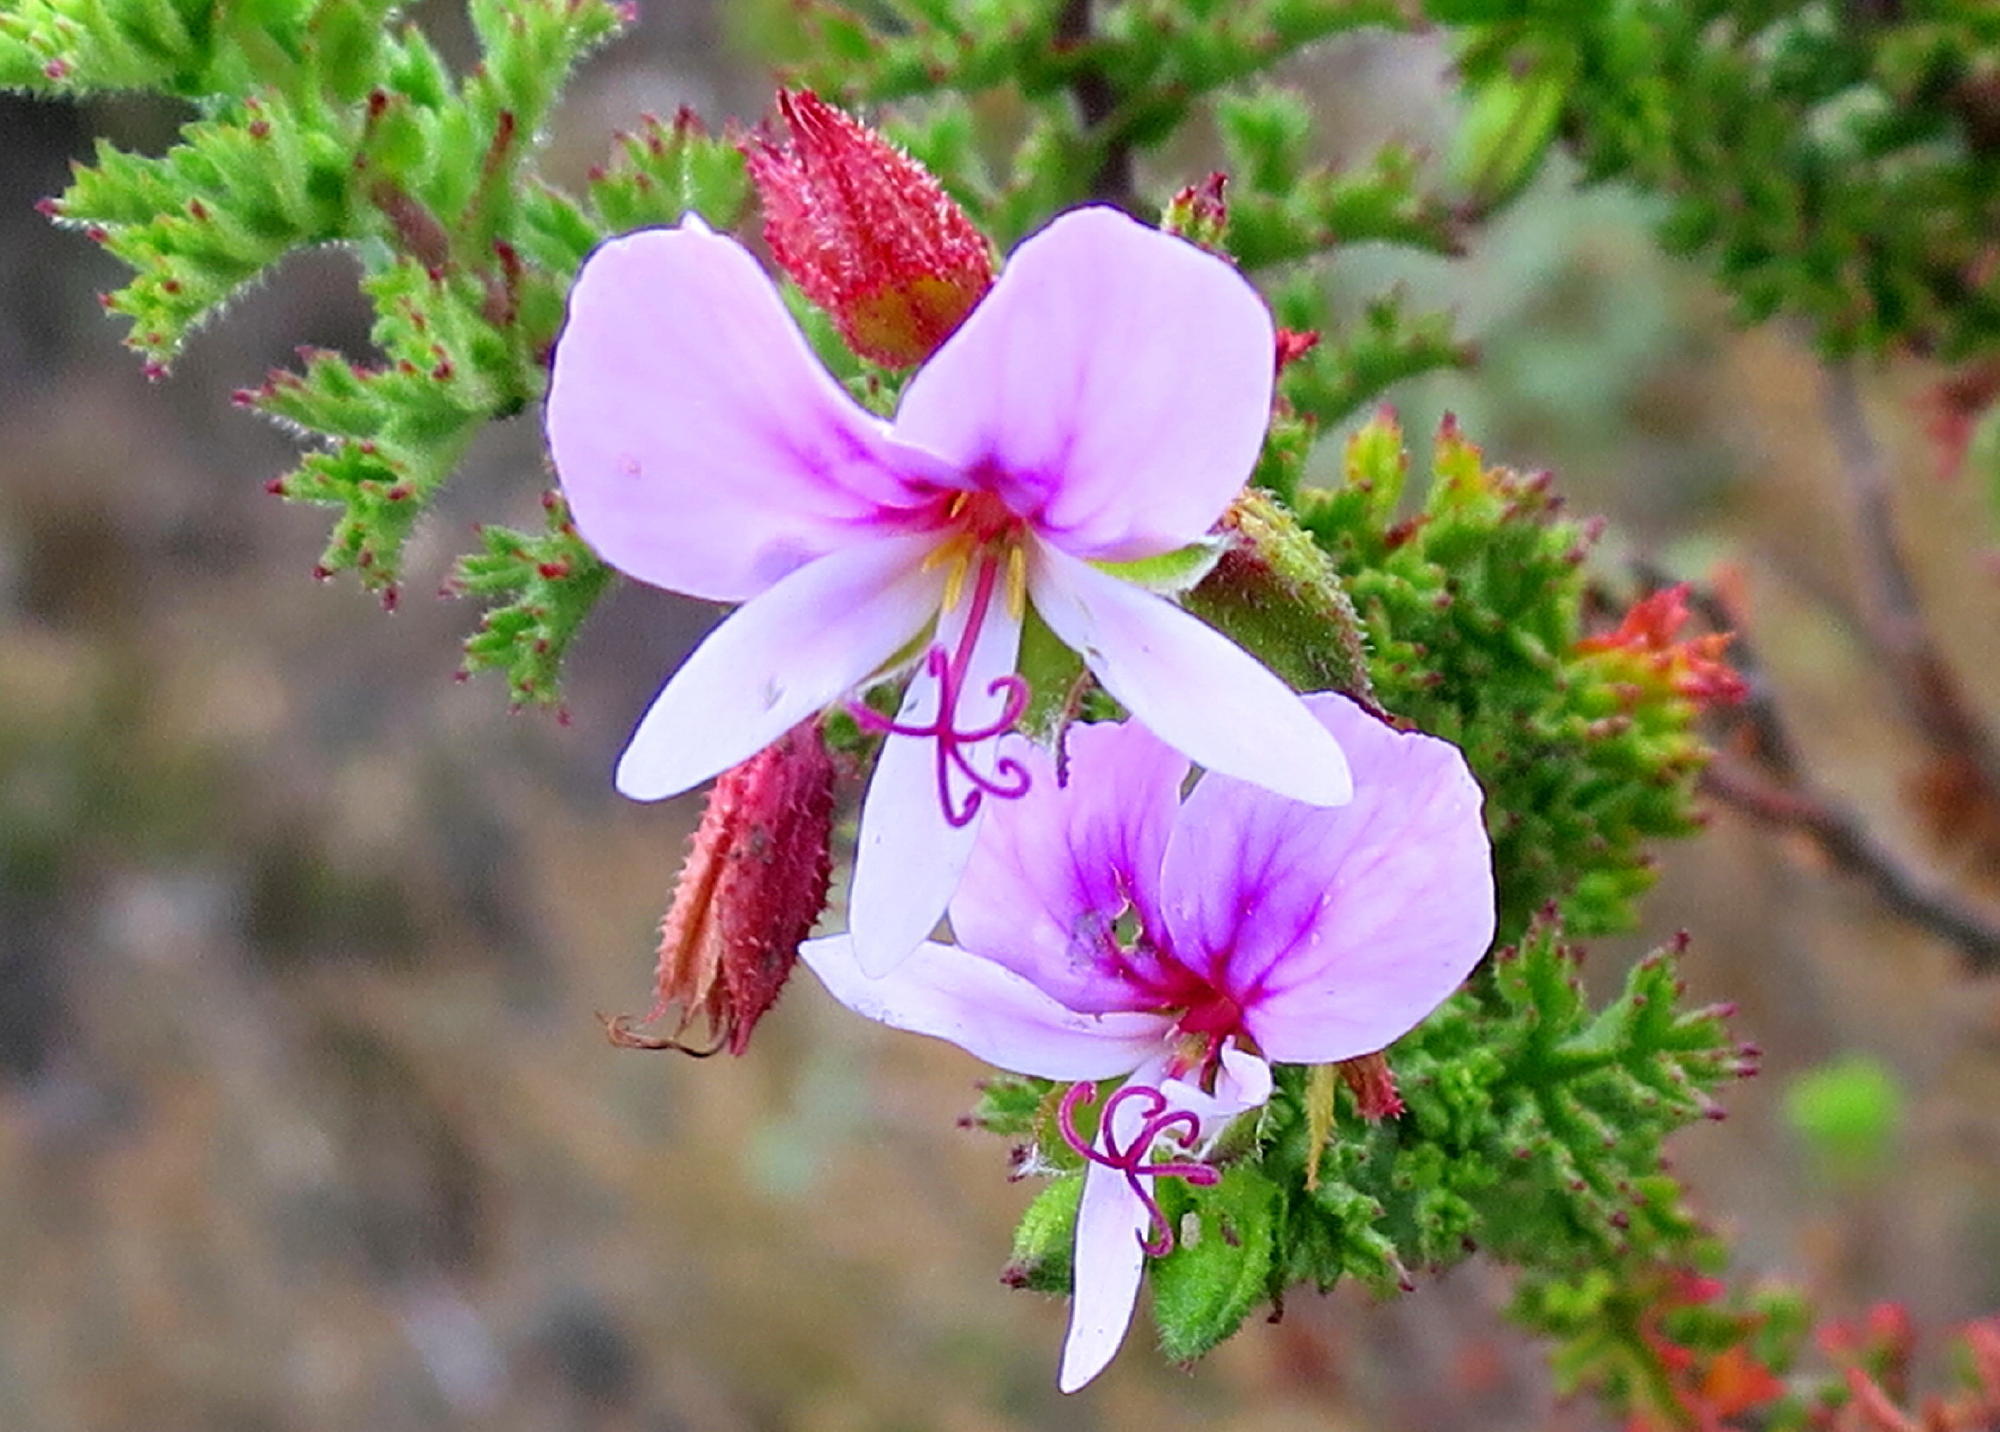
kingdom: Plantae
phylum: Tracheophyta
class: Magnoliopsida
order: Geraniales
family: Geraniaceae
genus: Pelargonium
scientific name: Pelargonium hermaniifolium
